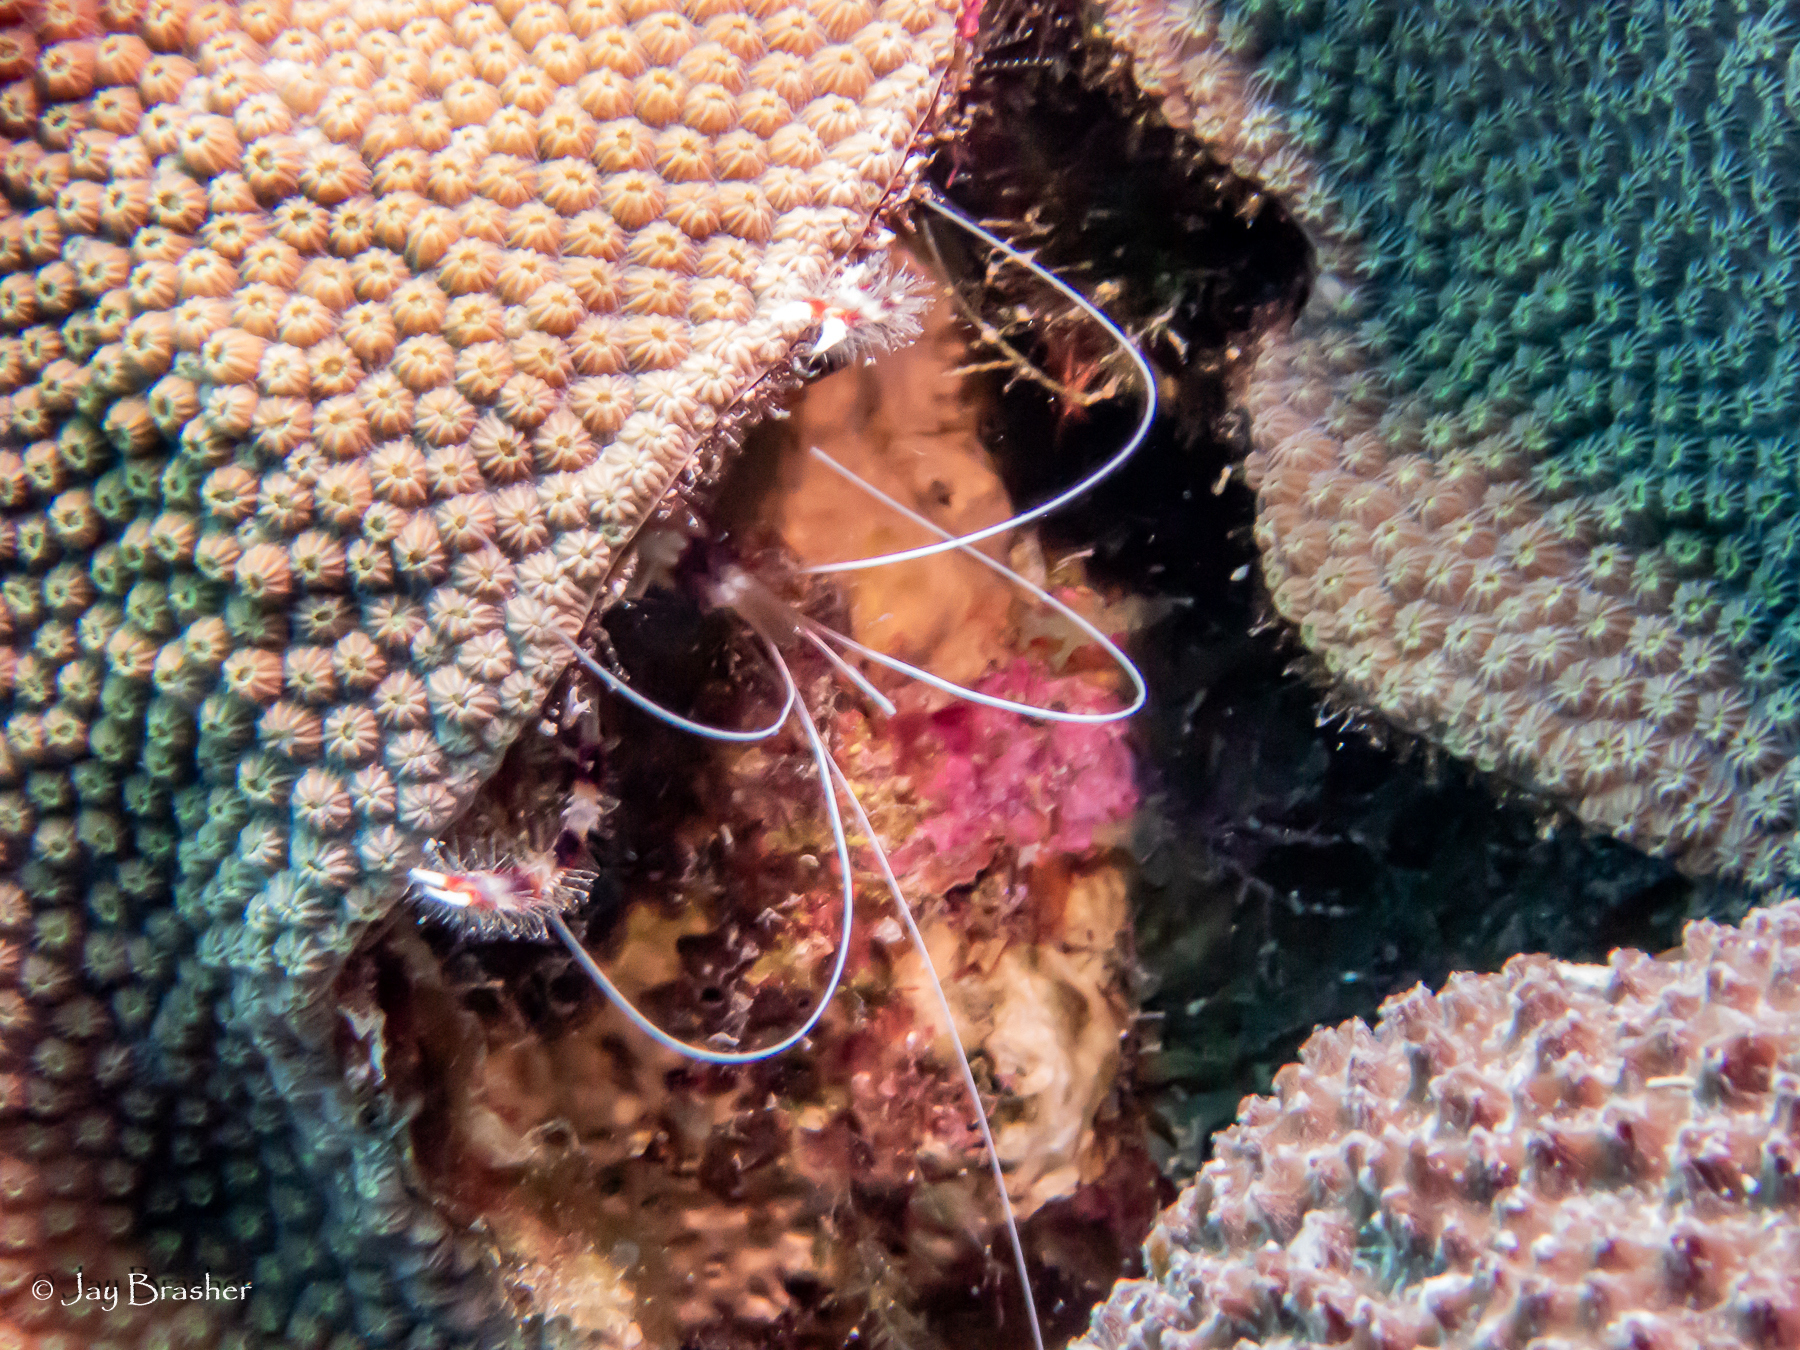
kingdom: Animalia
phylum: Arthropoda
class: Malacostraca
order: Decapoda
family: Stenopodidae
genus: Stenopus
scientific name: Stenopus hispidus
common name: Banded coral shrimp
